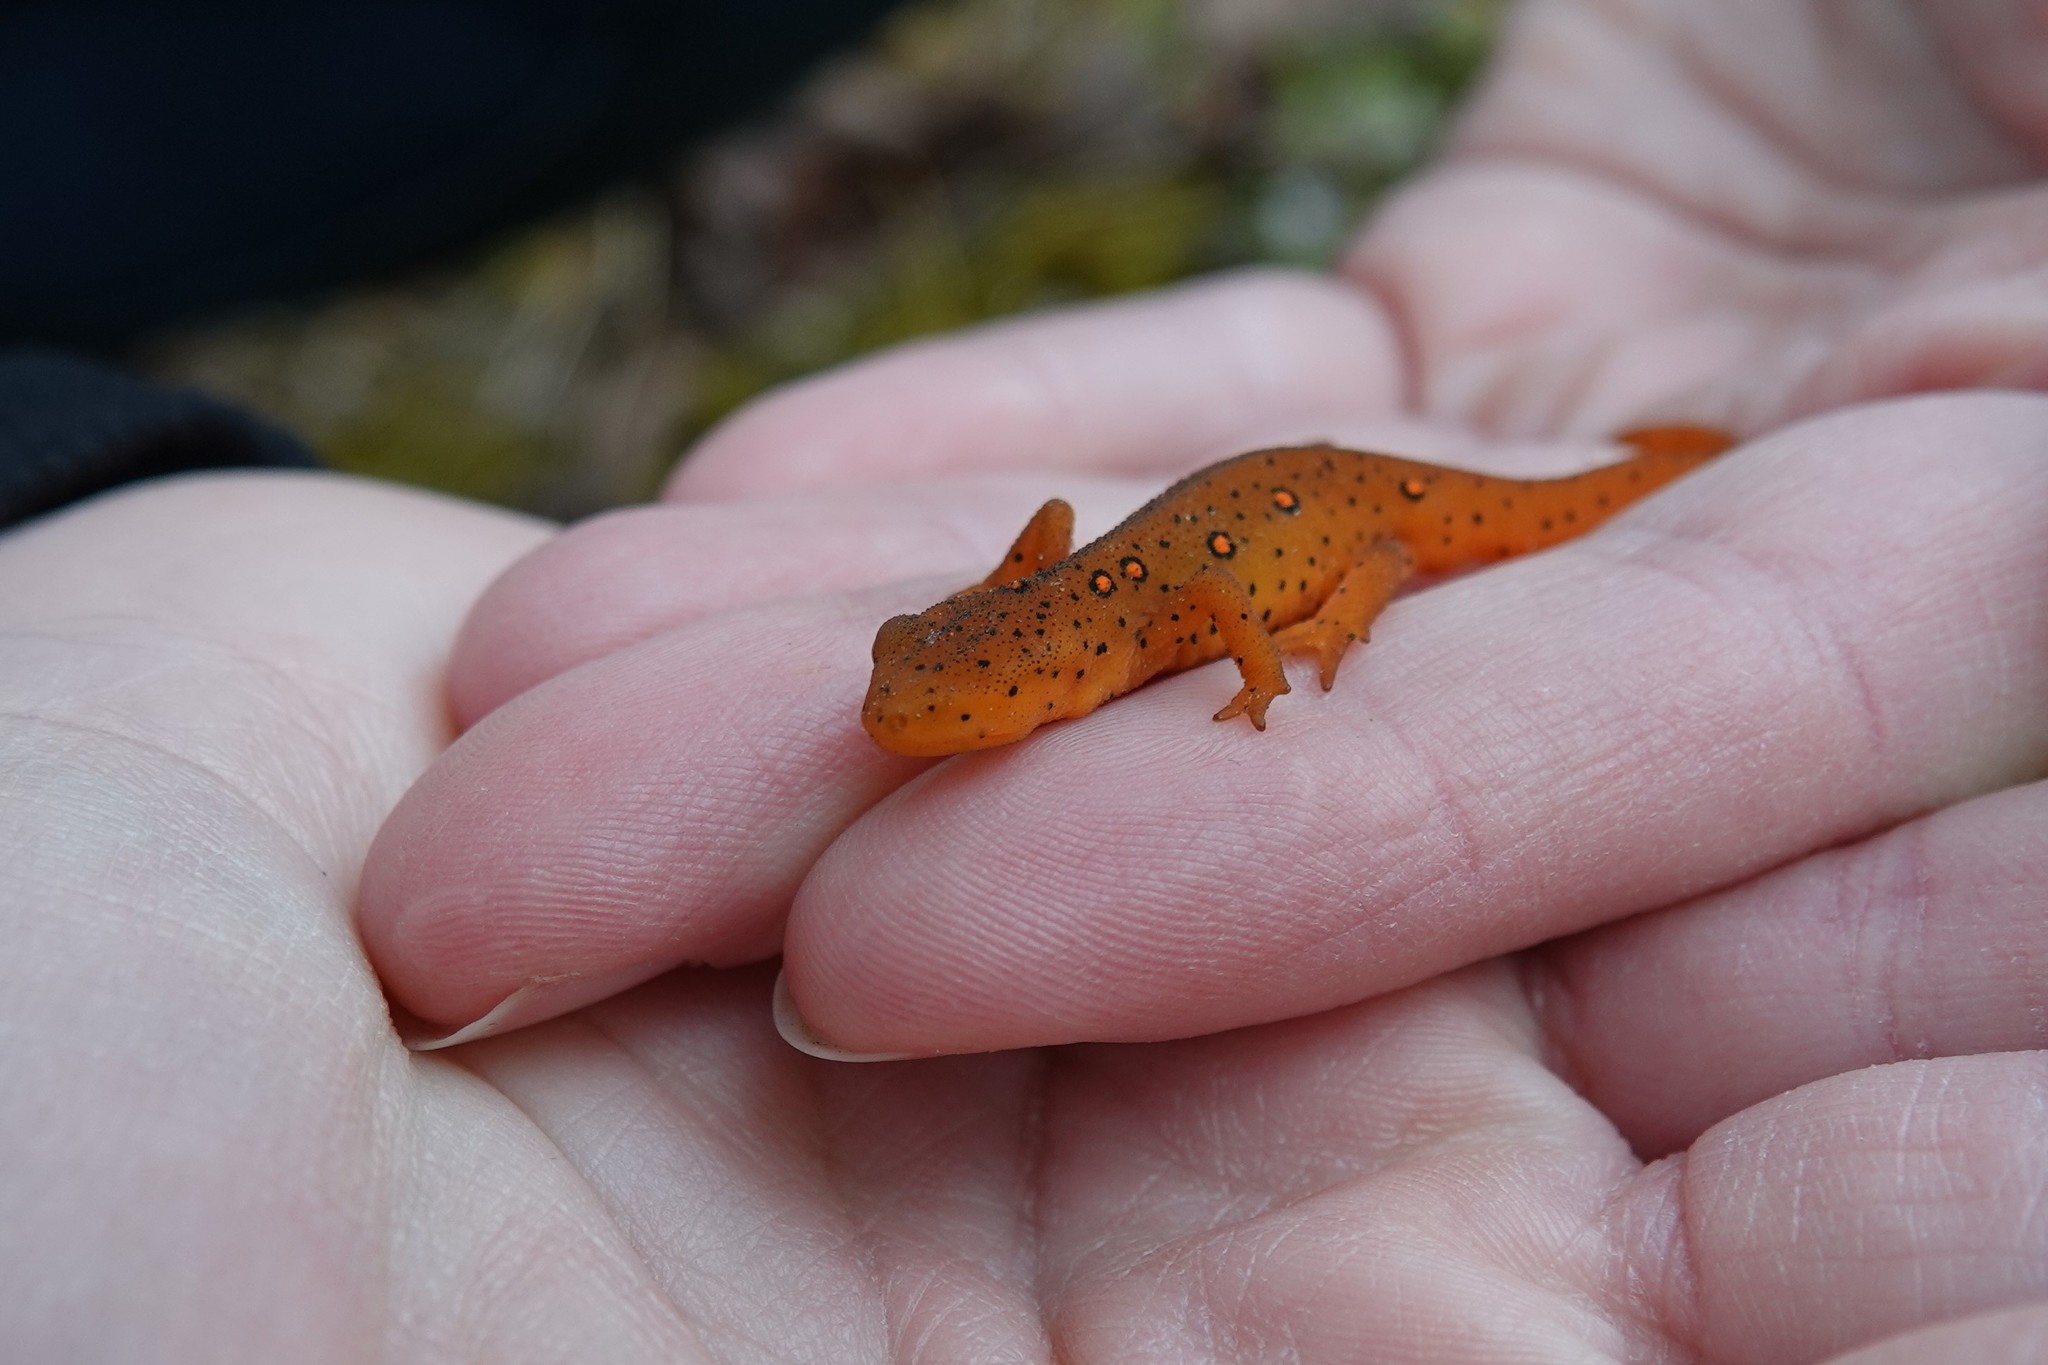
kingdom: Animalia
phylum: Chordata
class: Amphibia
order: Caudata
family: Salamandridae
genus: Notophthalmus
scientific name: Notophthalmus viridescens
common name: Eastern newt
